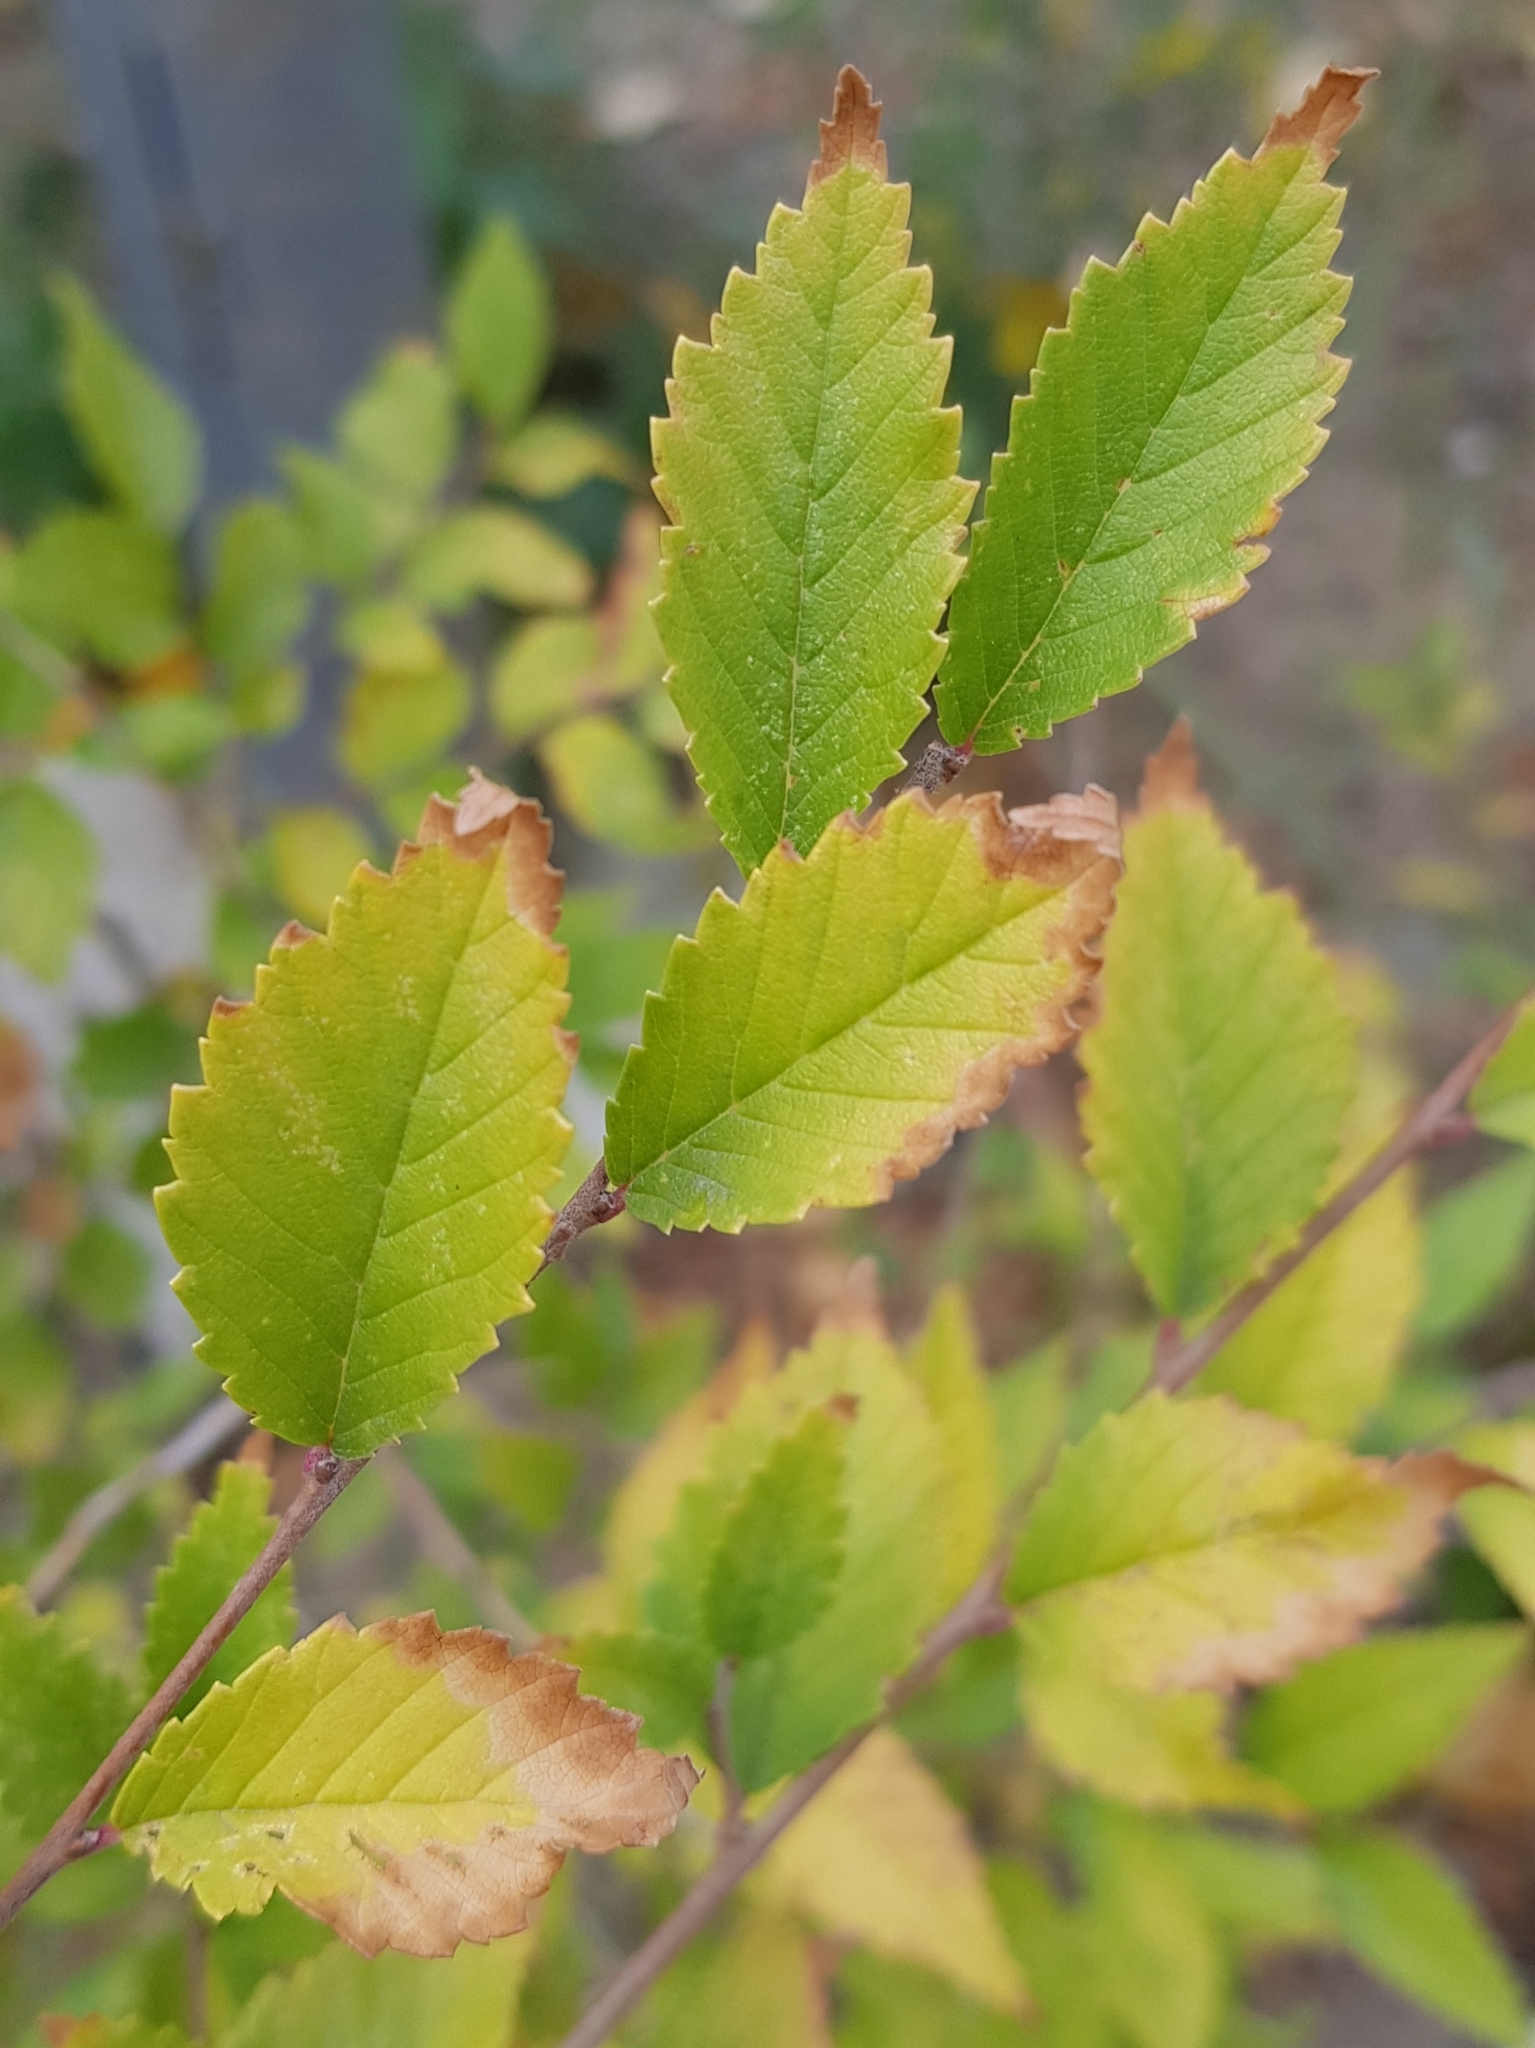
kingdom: Plantae
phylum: Tracheophyta
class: Magnoliopsida
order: Rosales
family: Ulmaceae
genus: Ulmus
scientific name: Ulmus pumila
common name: Siberian elm
